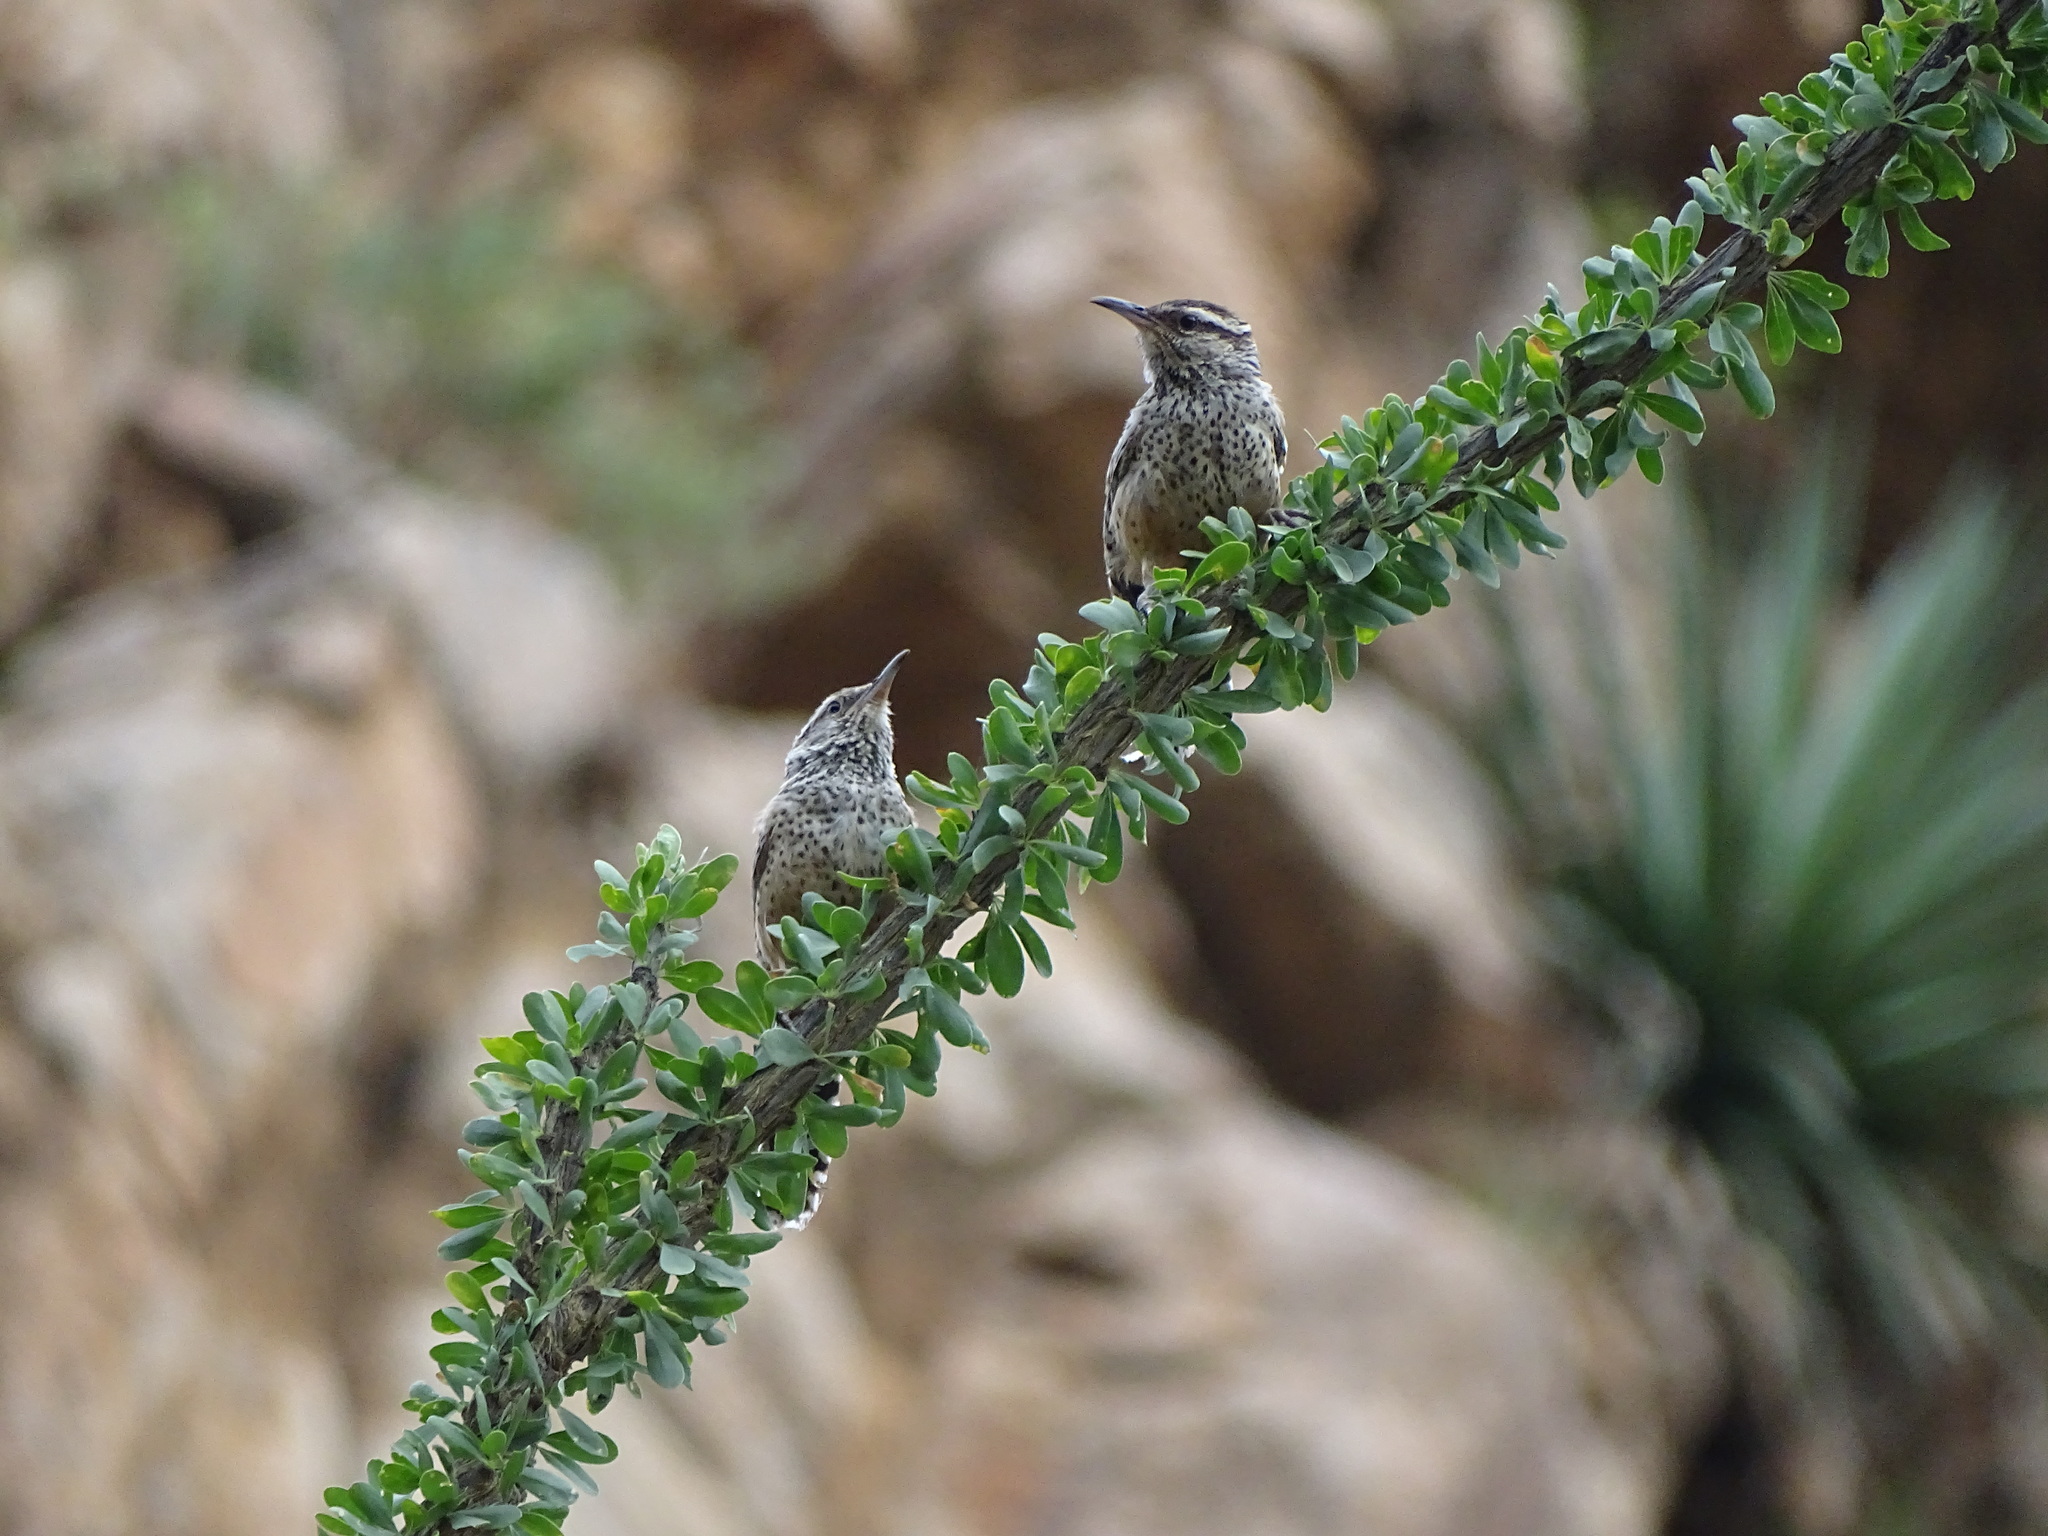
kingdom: Animalia
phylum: Chordata
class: Aves
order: Passeriformes
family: Troglodytidae
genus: Campylorhynchus
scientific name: Campylorhynchus brunneicapillus
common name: Cactus wren
